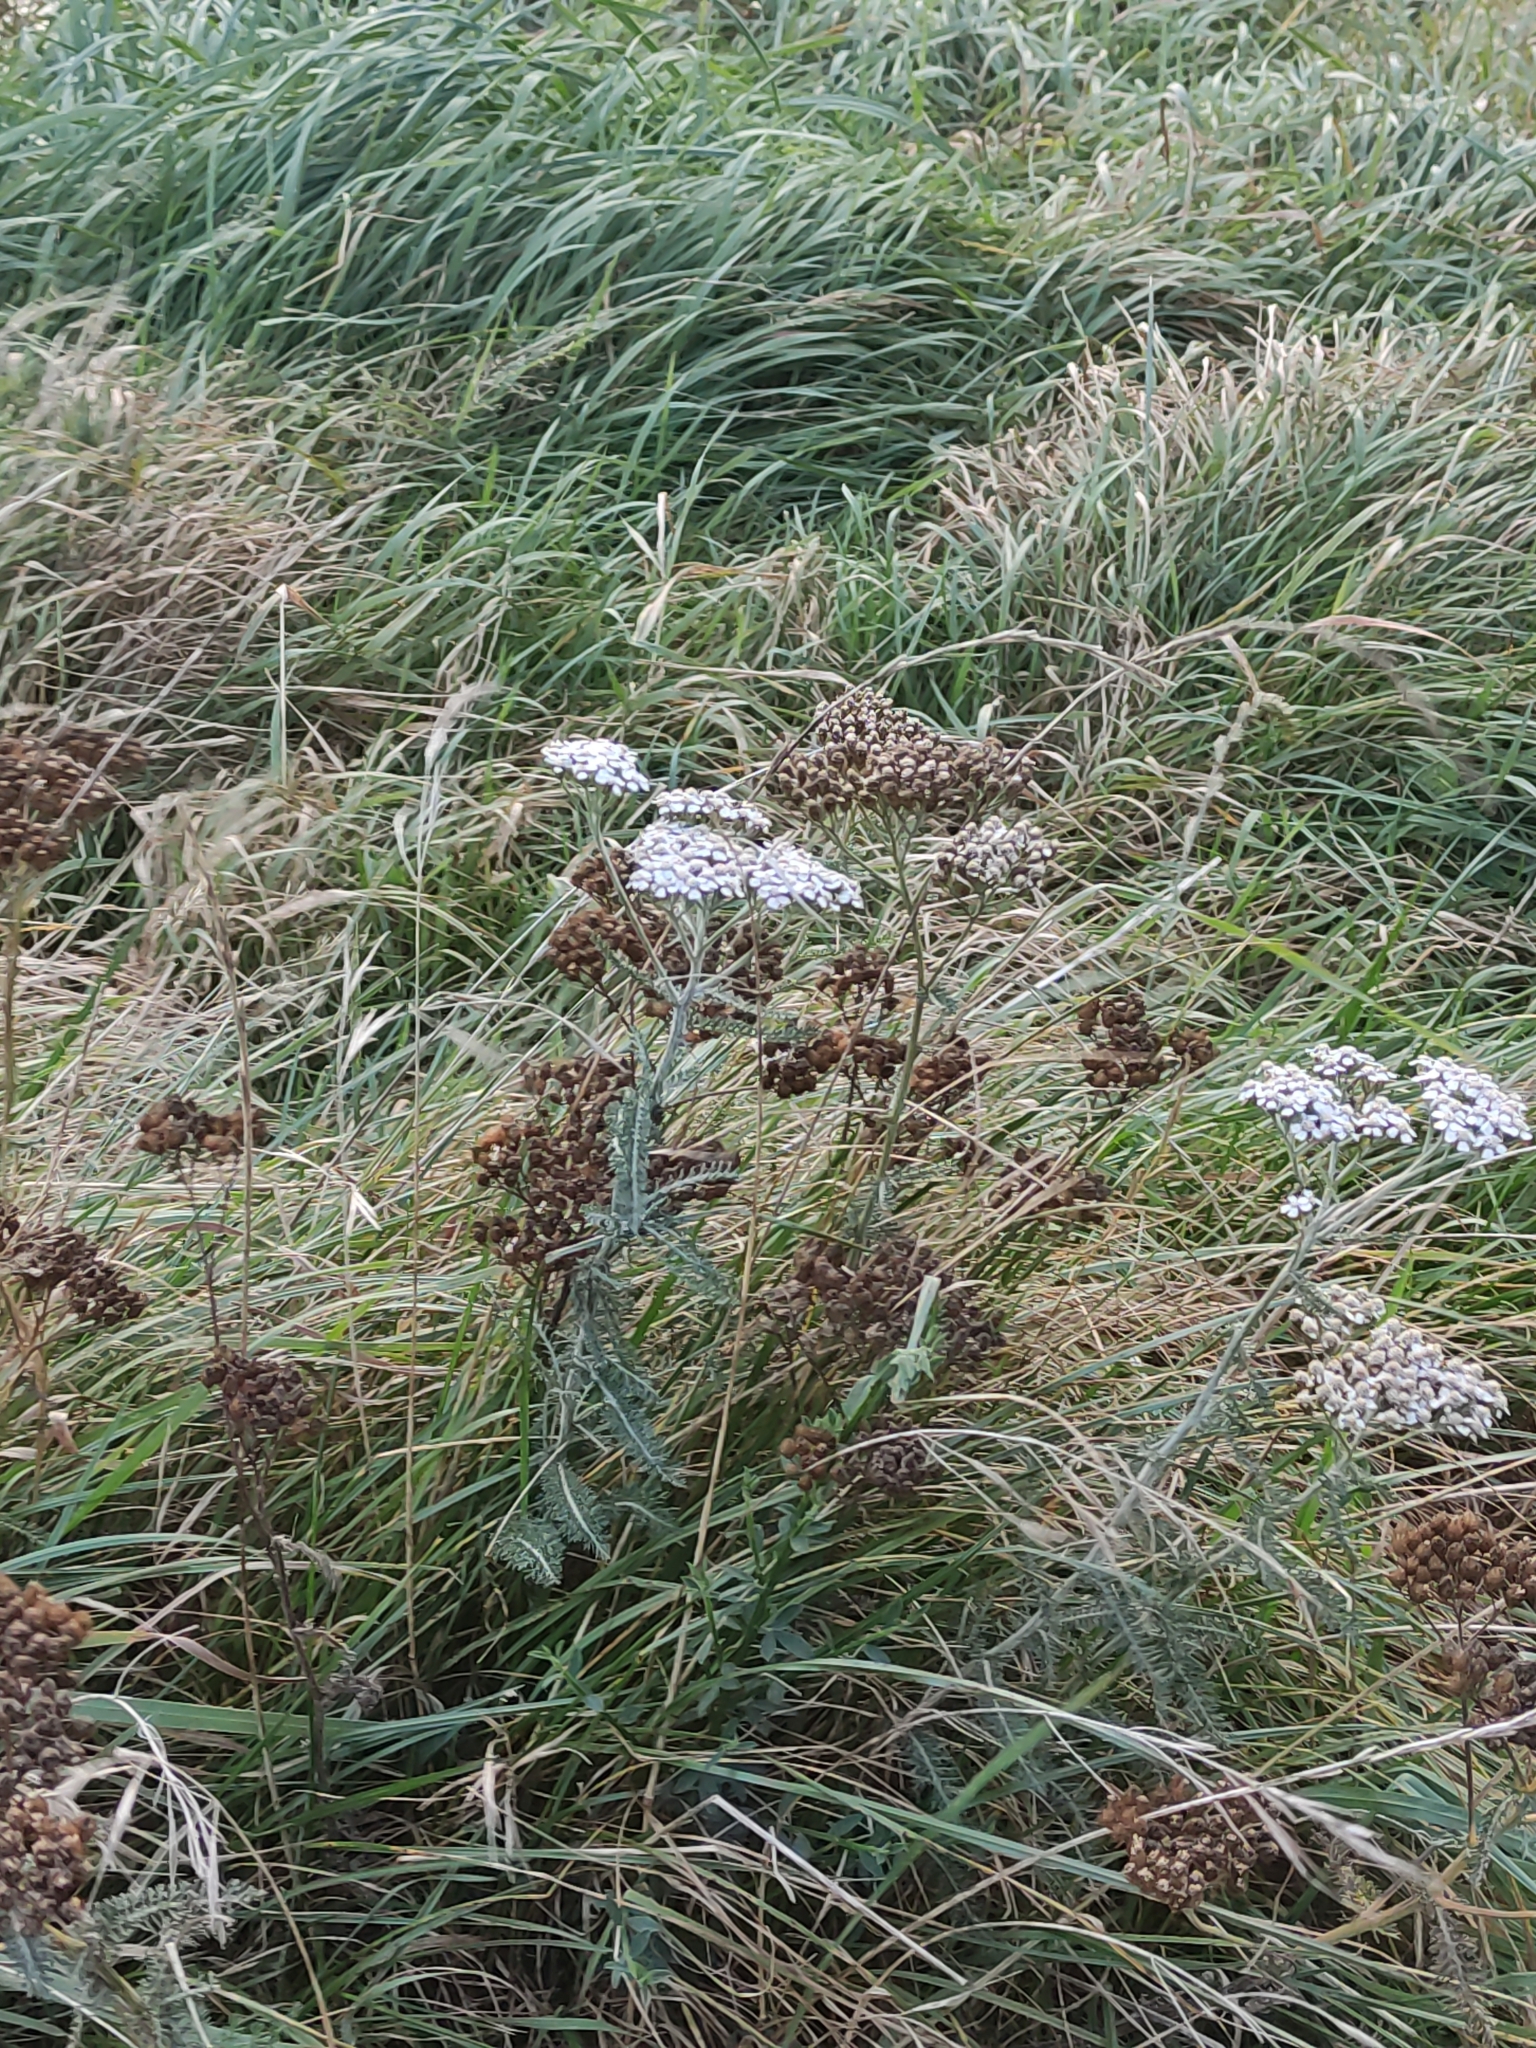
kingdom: Plantae
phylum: Tracheophyta
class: Magnoliopsida
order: Asterales
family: Asteraceae
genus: Achillea
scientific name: Achillea millefolium
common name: Yarrow
